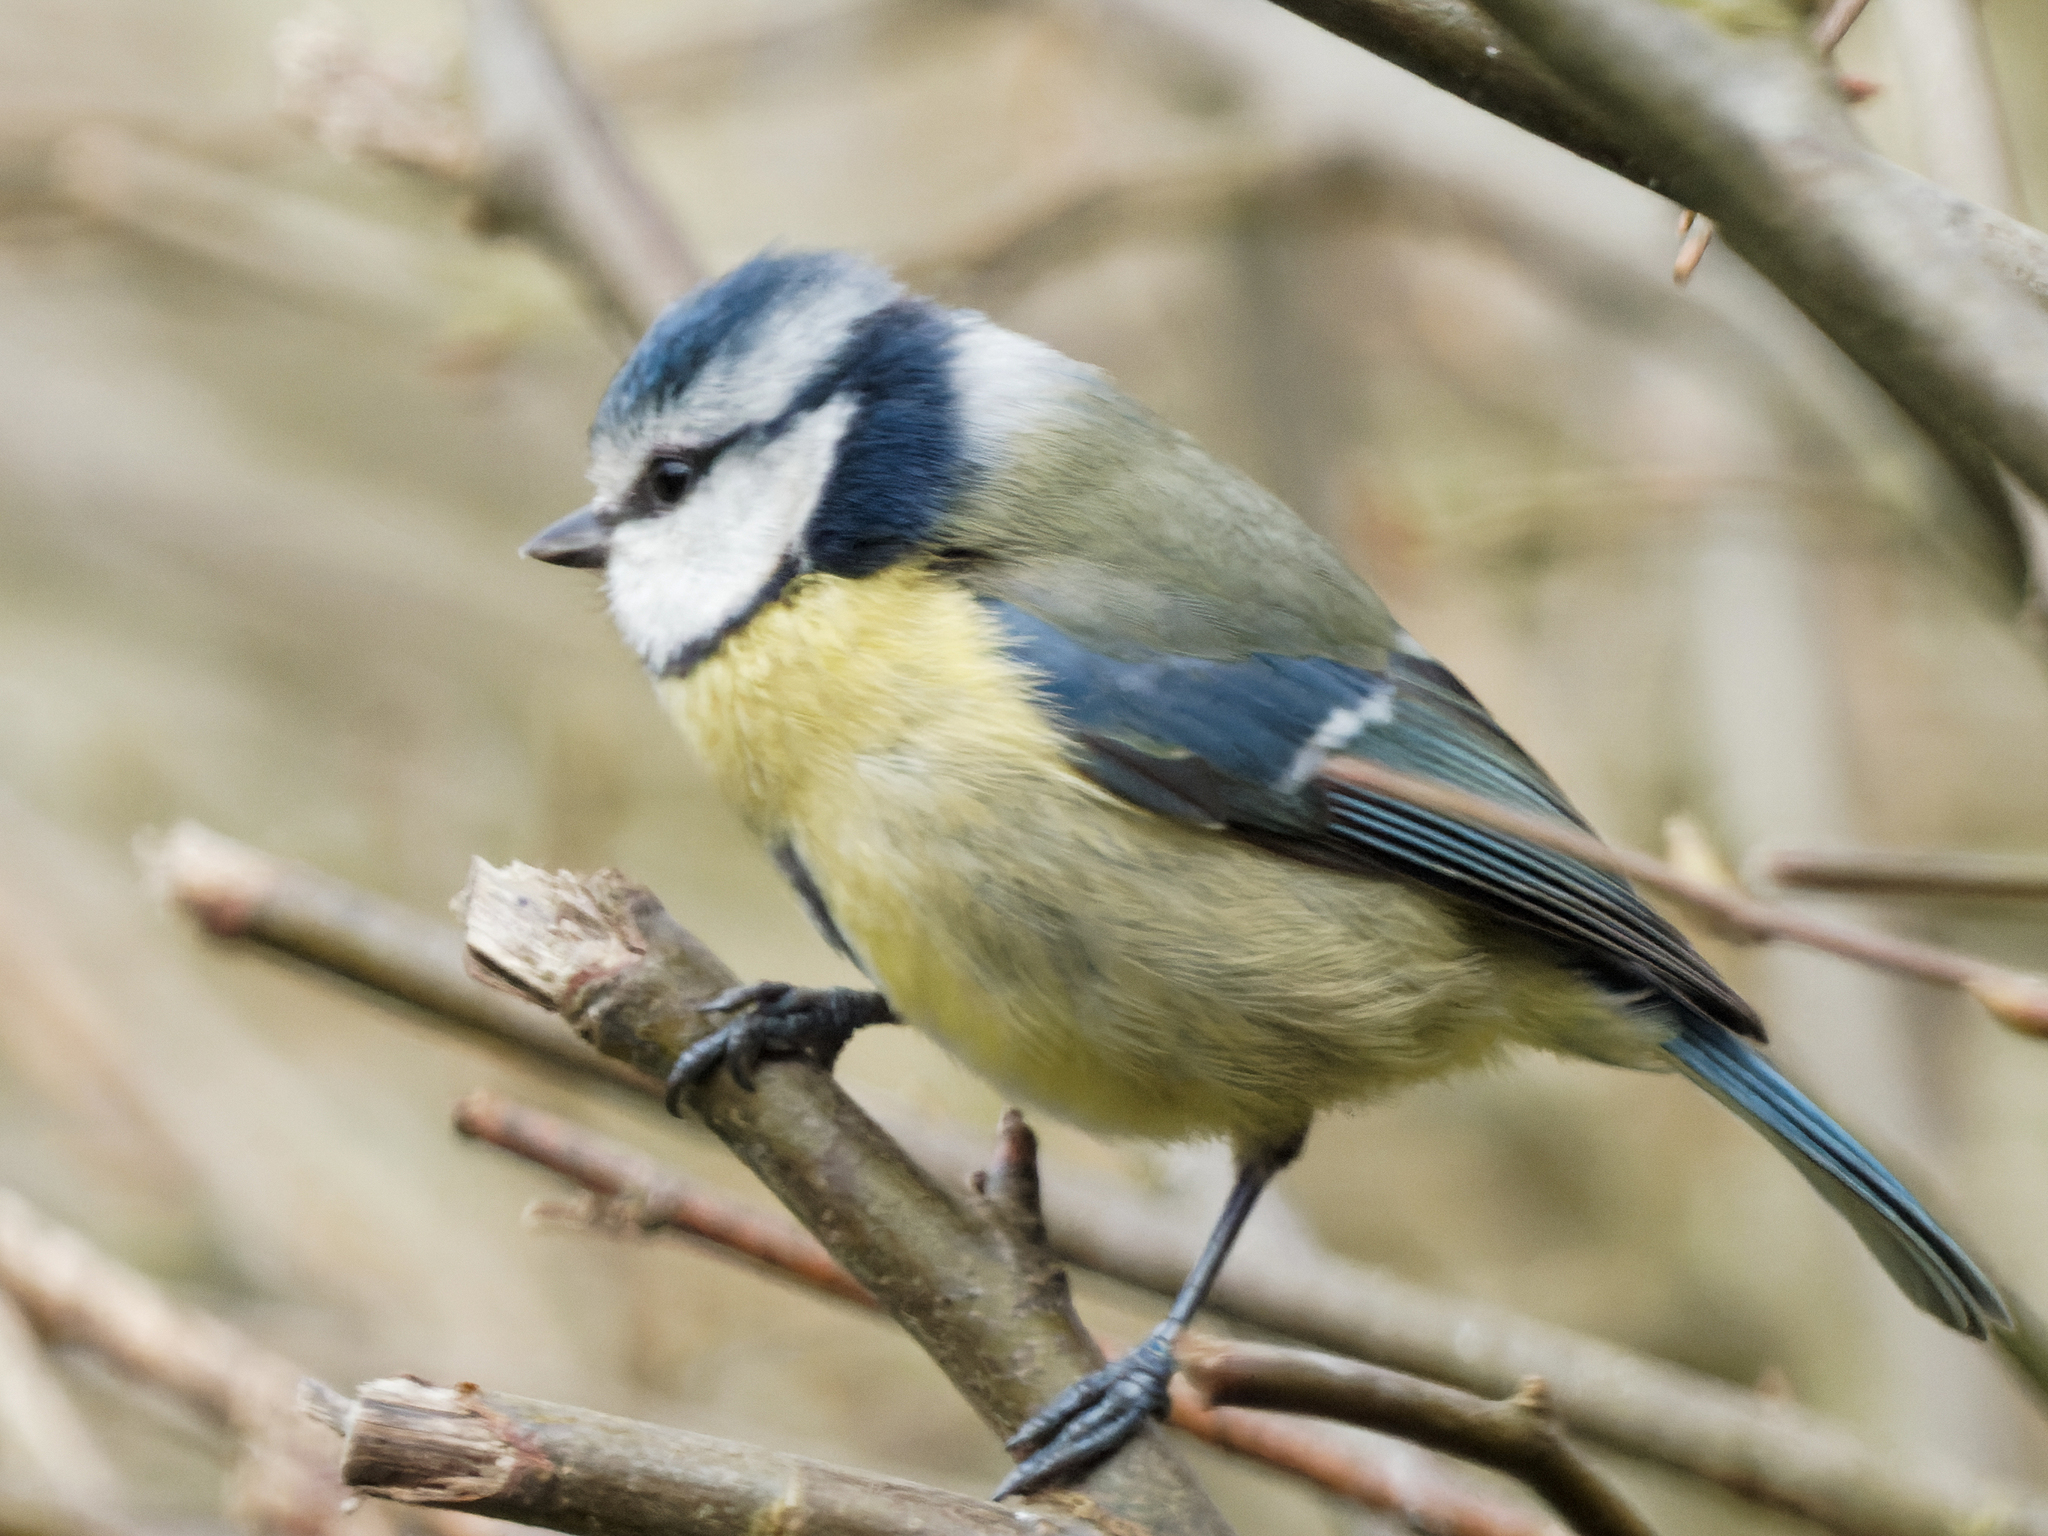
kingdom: Animalia
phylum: Chordata
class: Aves
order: Passeriformes
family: Paridae
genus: Cyanistes
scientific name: Cyanistes caeruleus
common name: Eurasian blue tit
